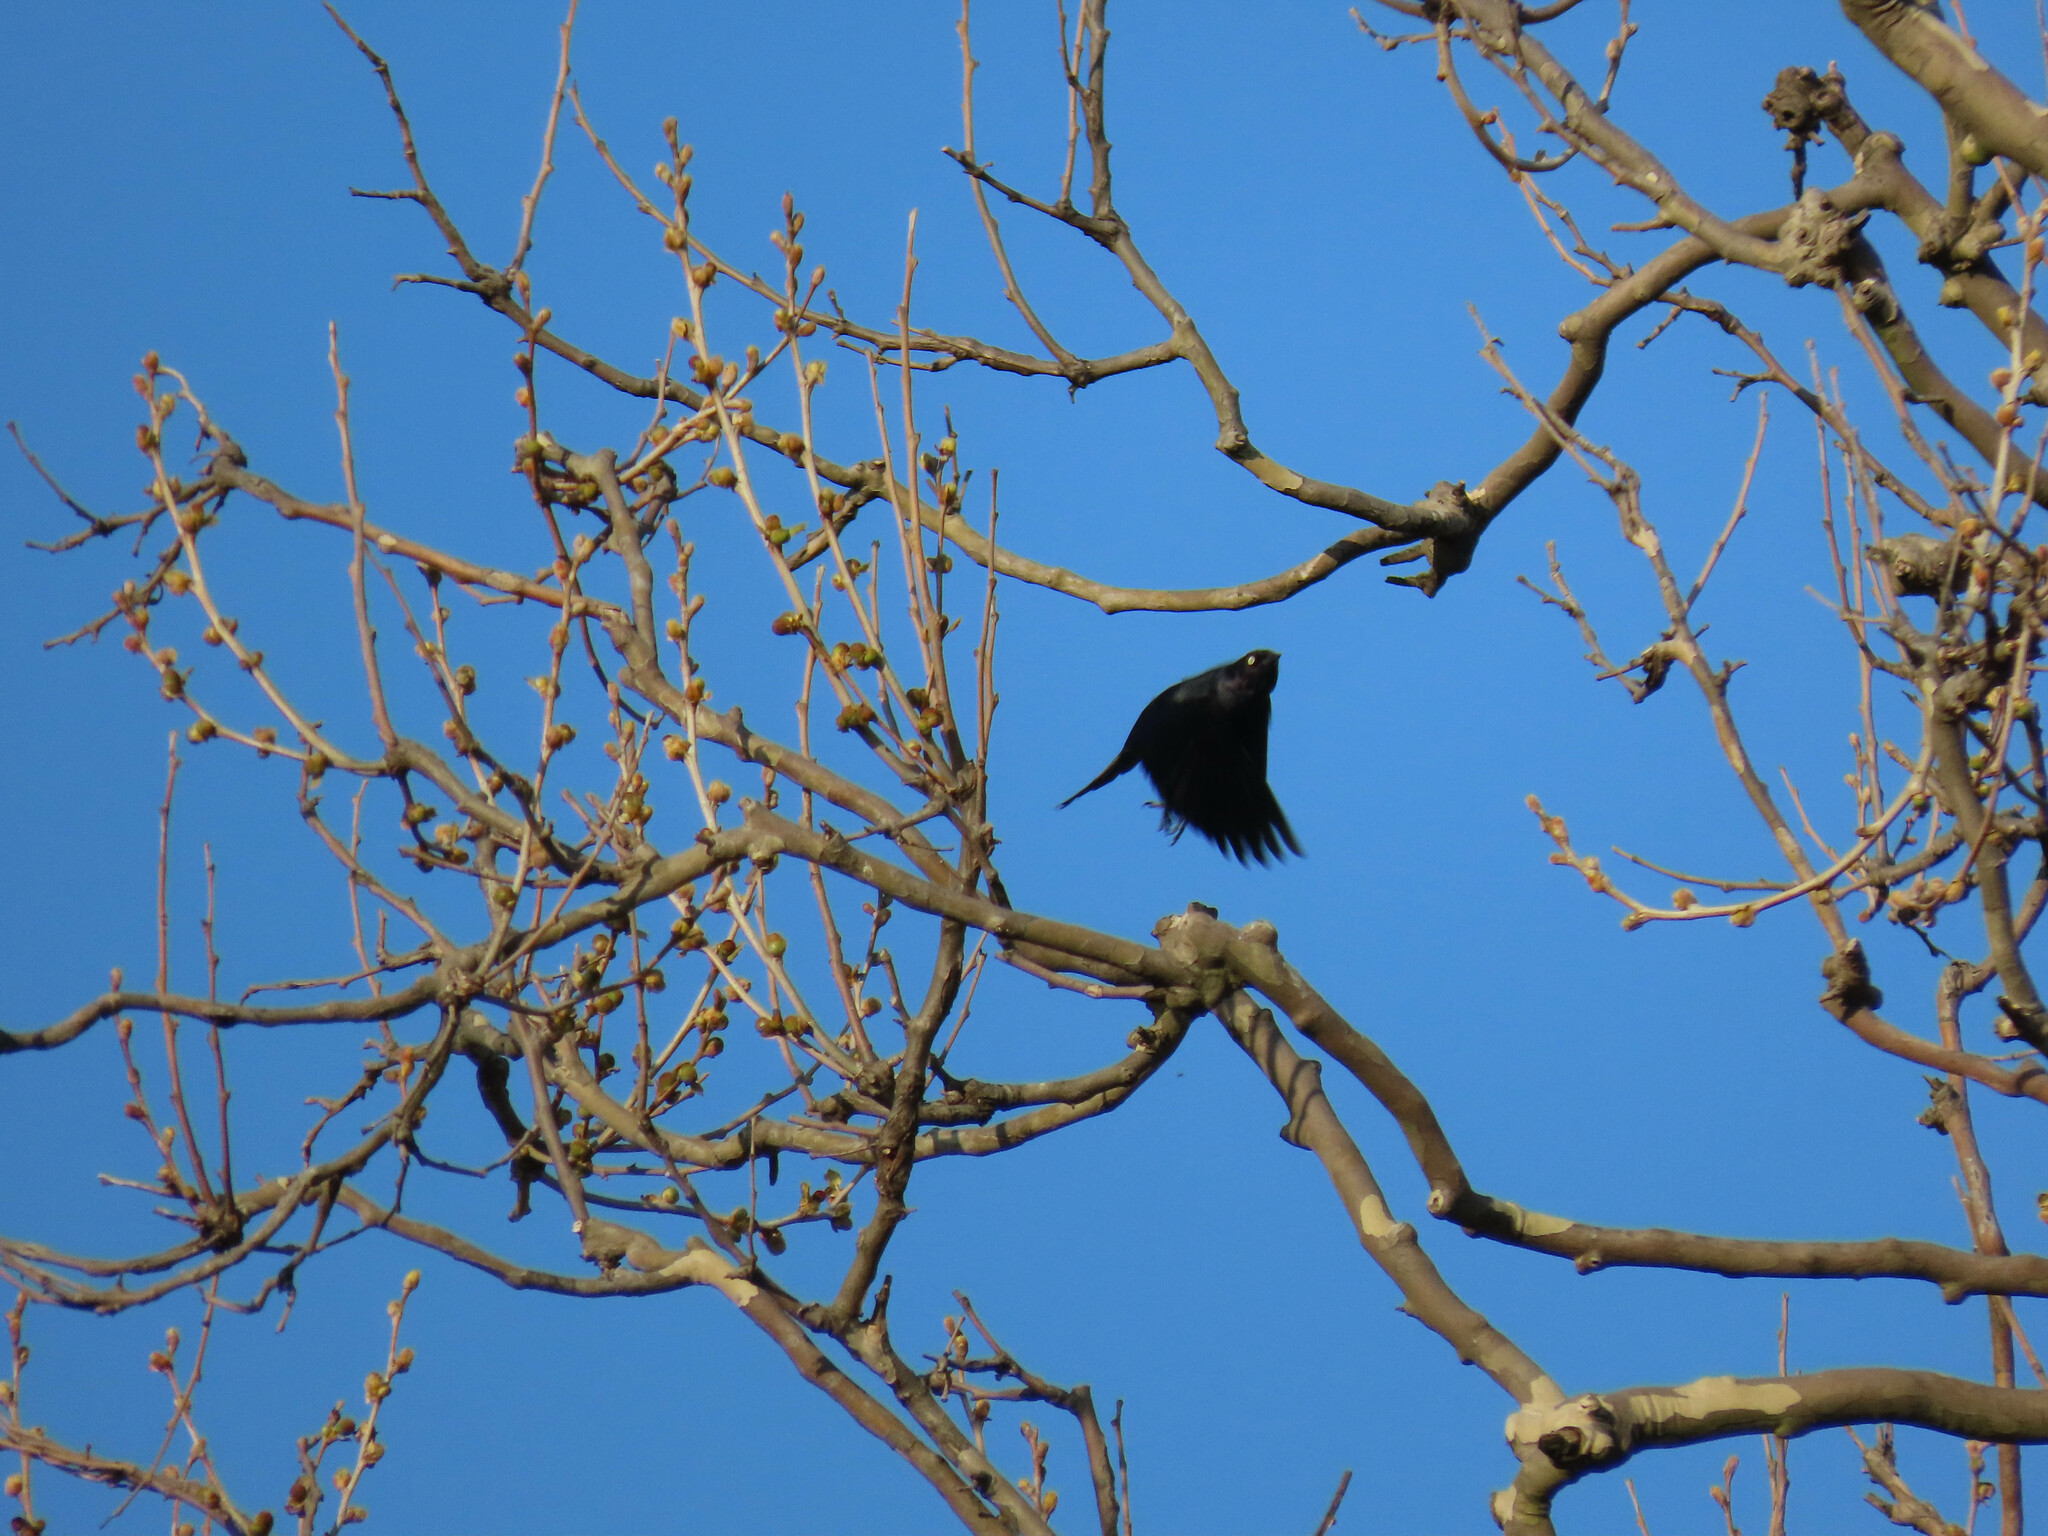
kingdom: Animalia
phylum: Chordata
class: Aves
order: Passeriformes
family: Icteridae
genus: Euphagus
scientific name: Euphagus carolinus
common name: Rusty blackbird
